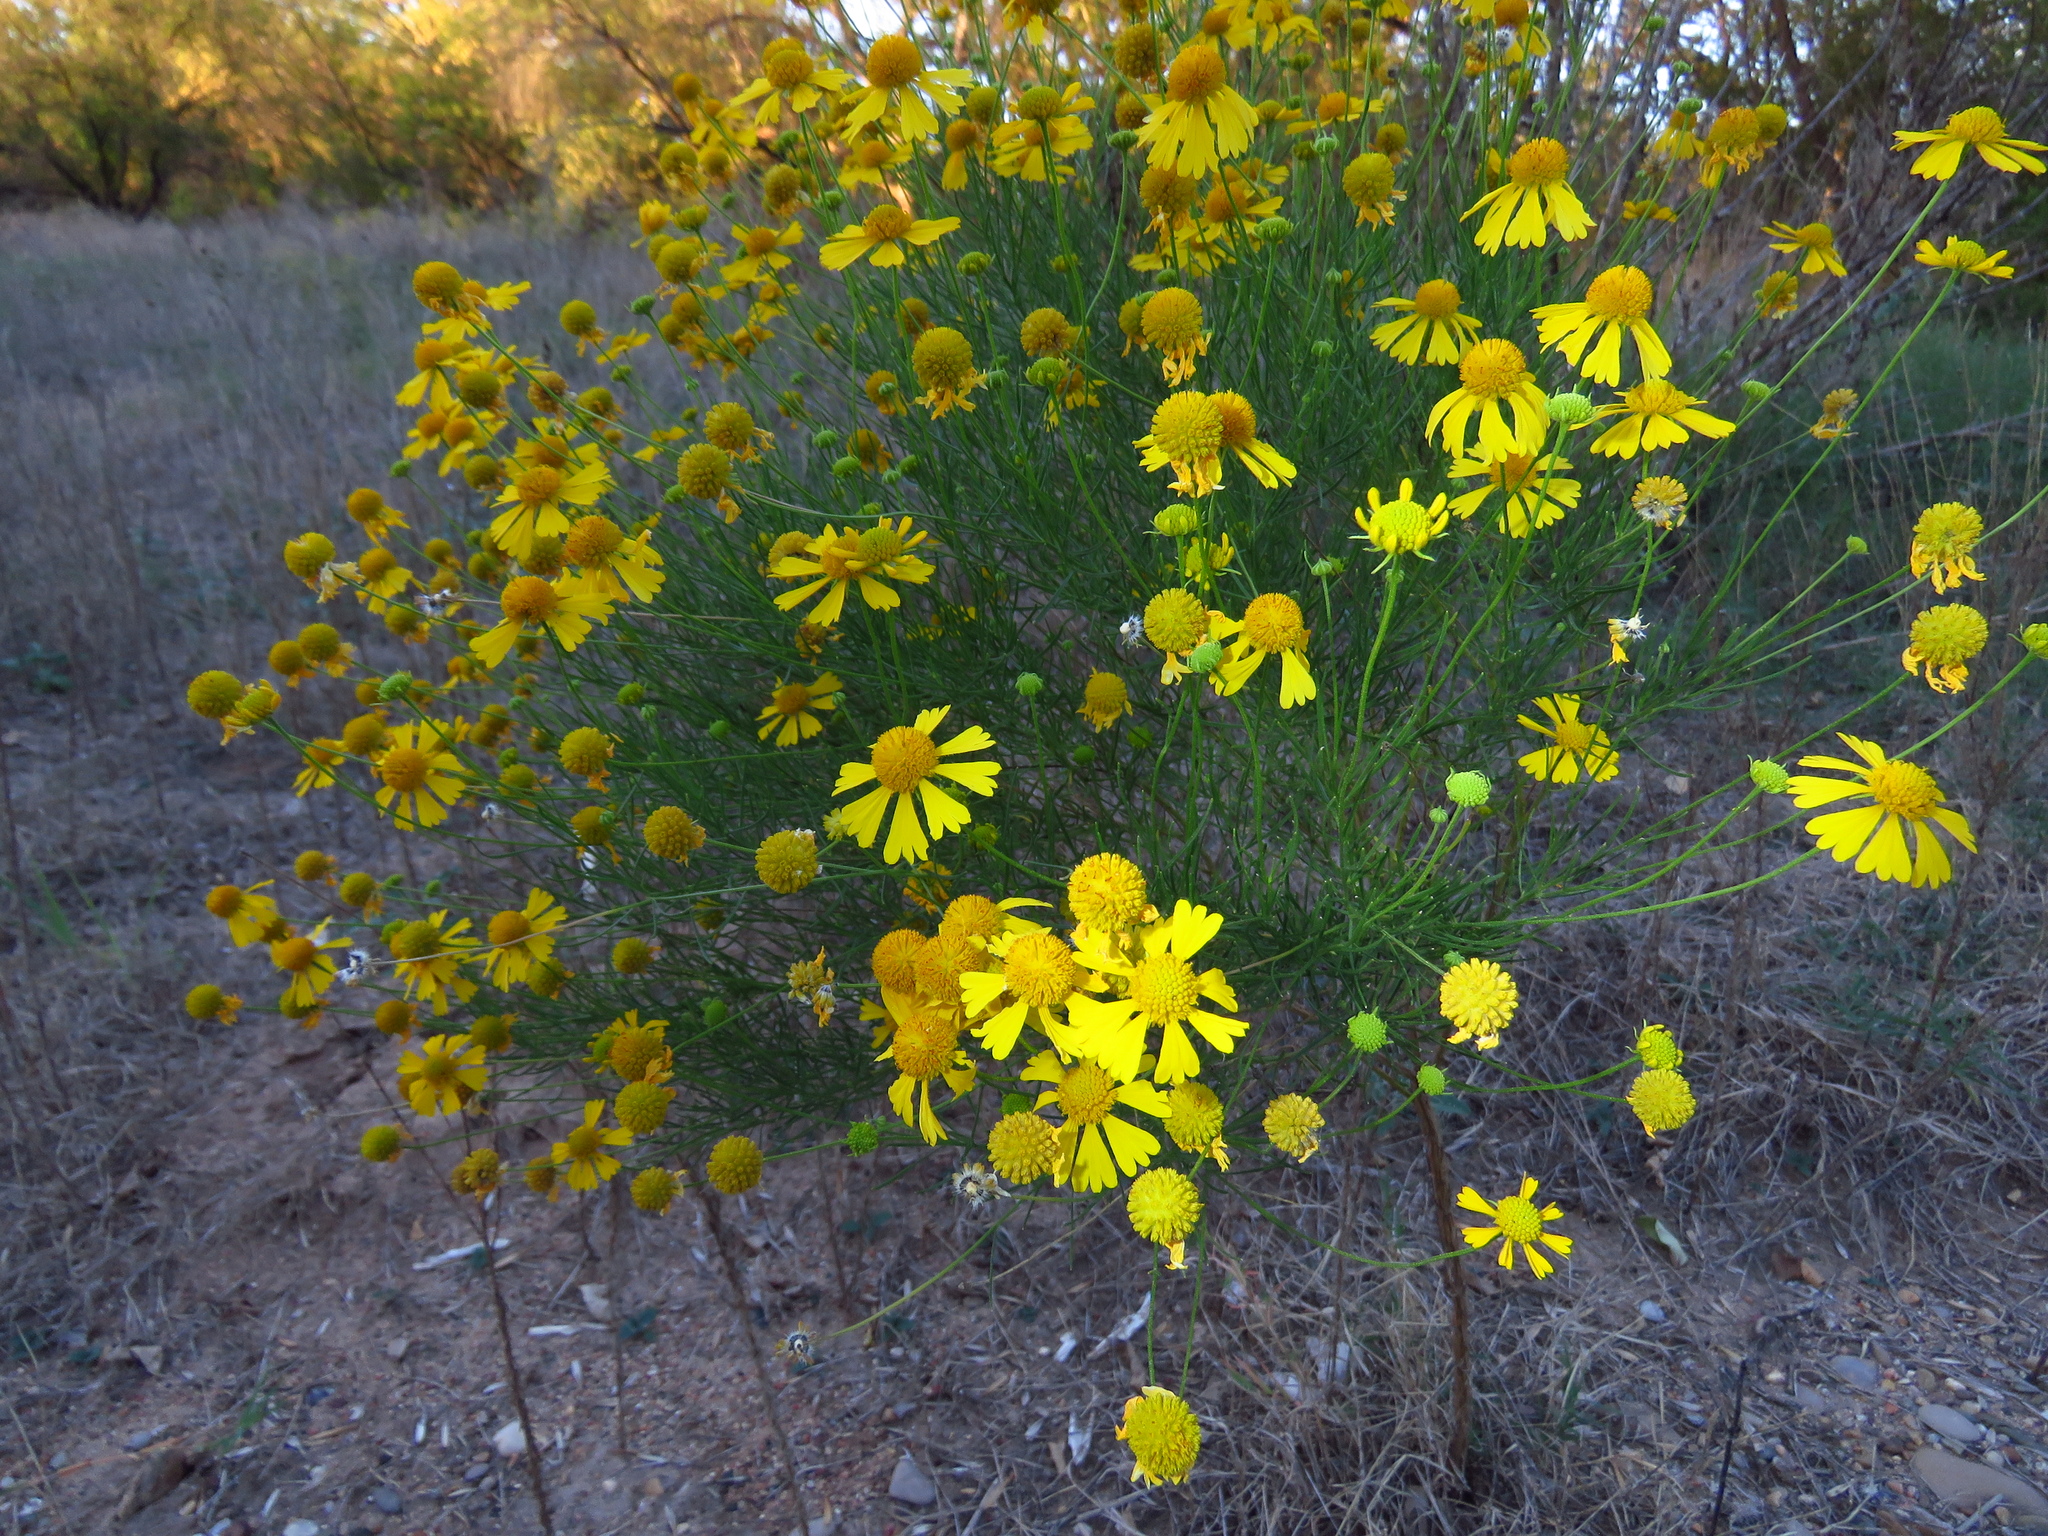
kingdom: Plantae
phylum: Tracheophyta
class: Magnoliopsida
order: Asterales
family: Asteraceae
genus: Helenium
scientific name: Helenium amarum
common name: Bitter sneezeweed
